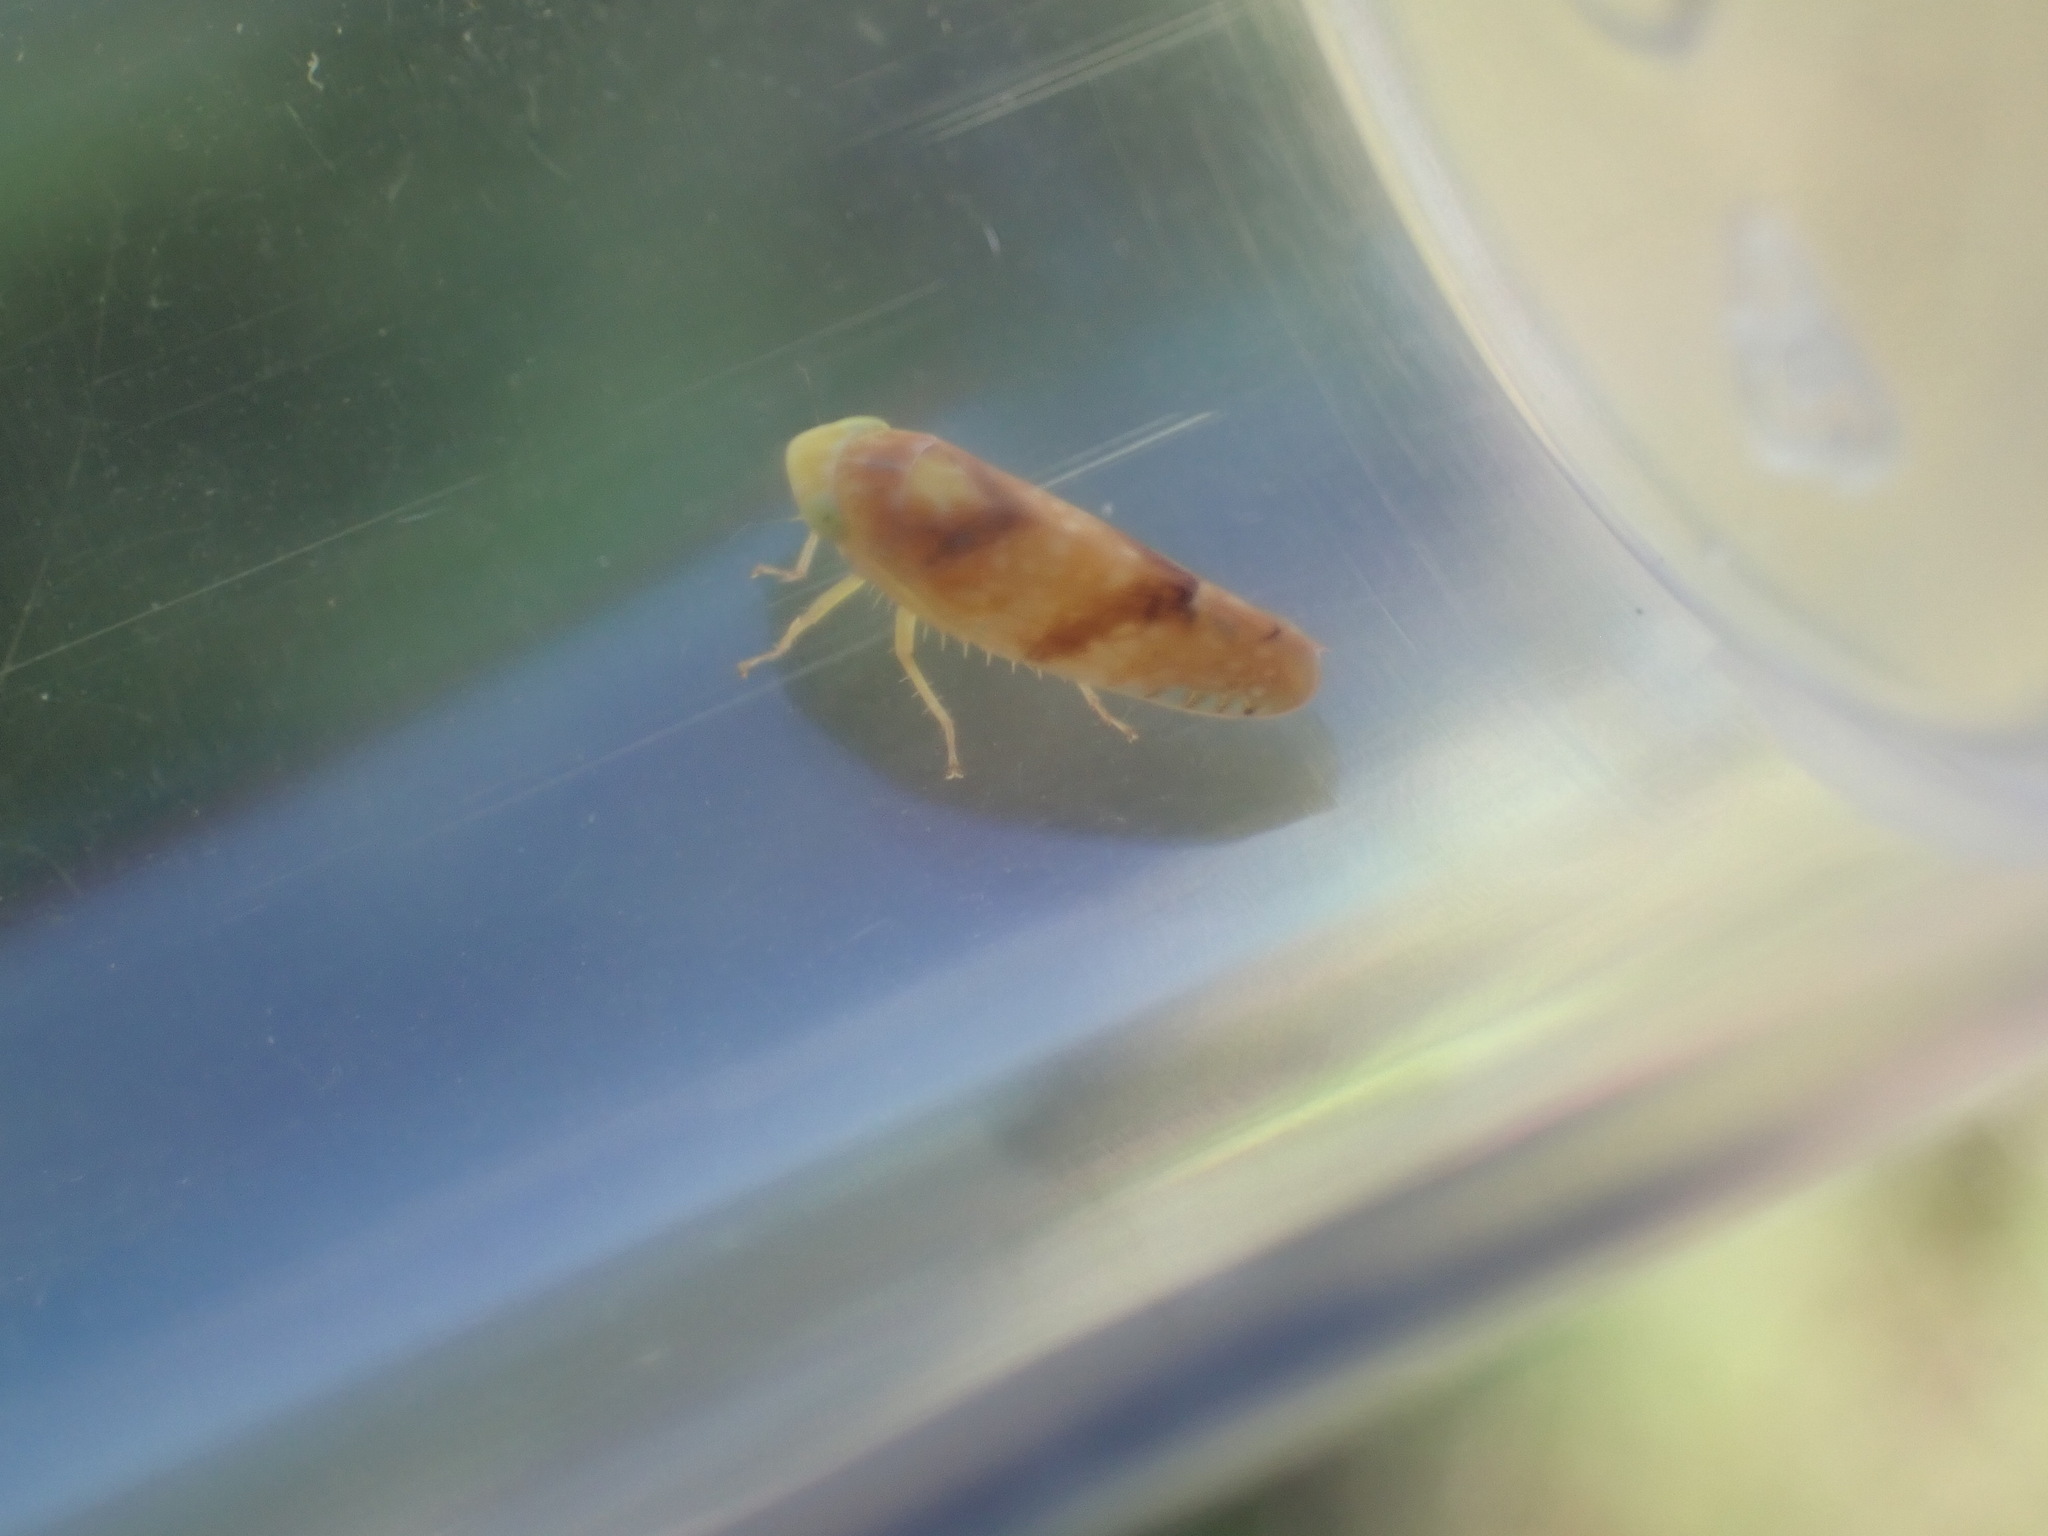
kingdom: Animalia
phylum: Arthropoda
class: Insecta
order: Hemiptera
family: Cicadellidae
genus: Fitchana
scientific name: Fitchana vitellina
